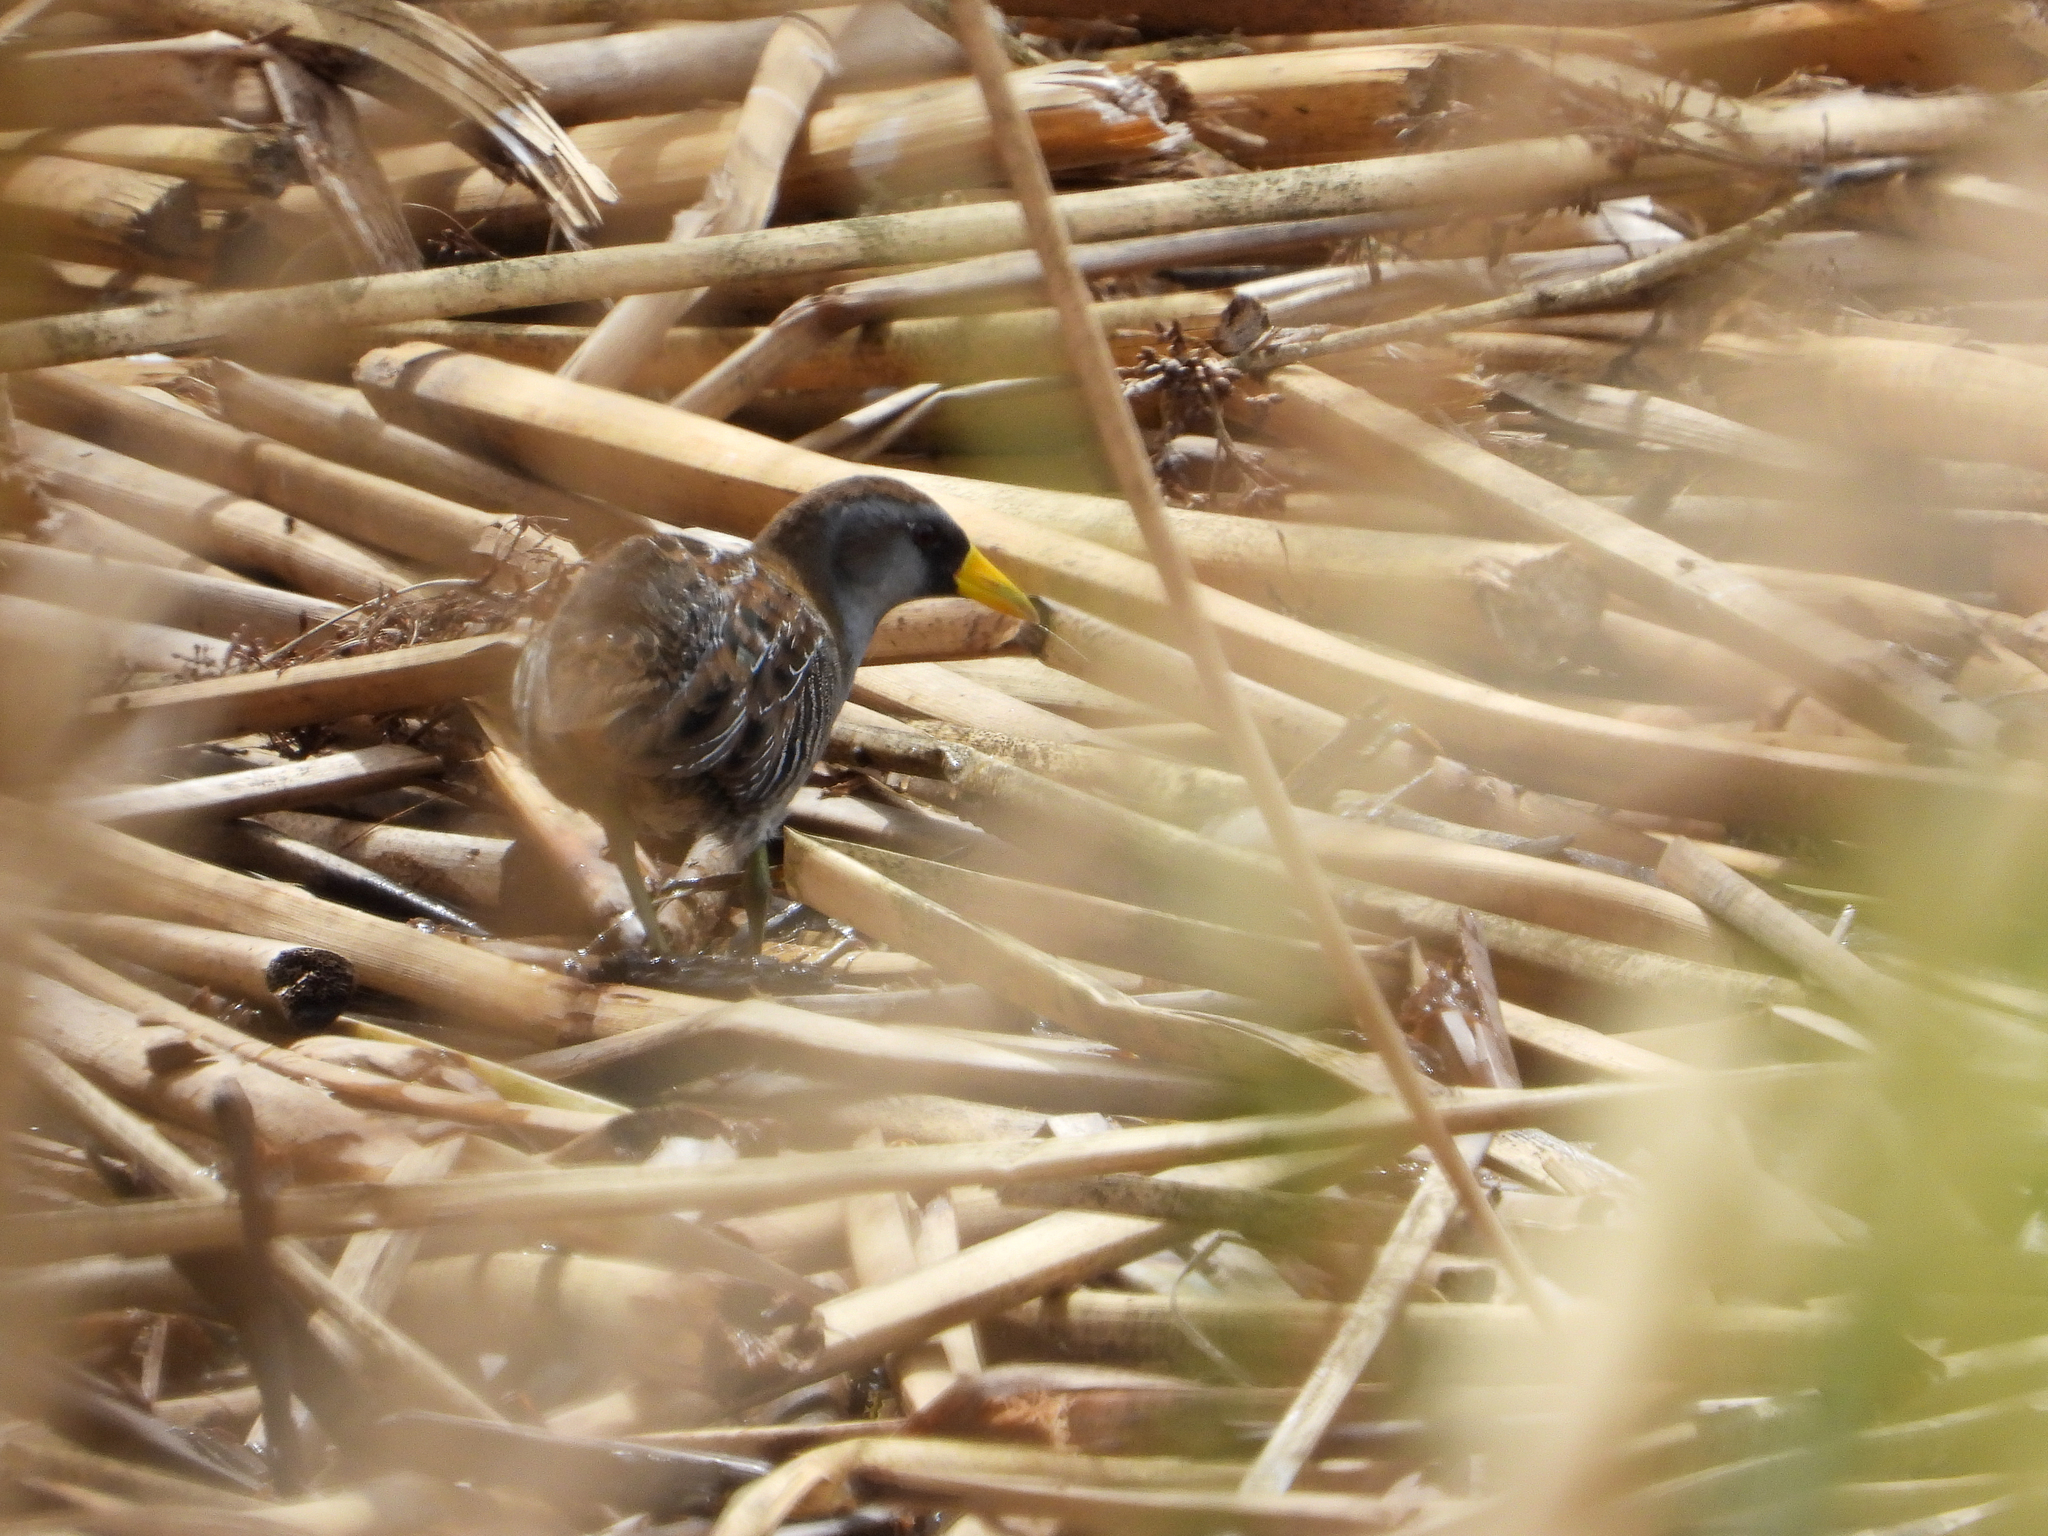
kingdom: Animalia
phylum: Chordata
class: Aves
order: Gruiformes
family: Rallidae
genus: Porzana
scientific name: Porzana carolina
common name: Sora
